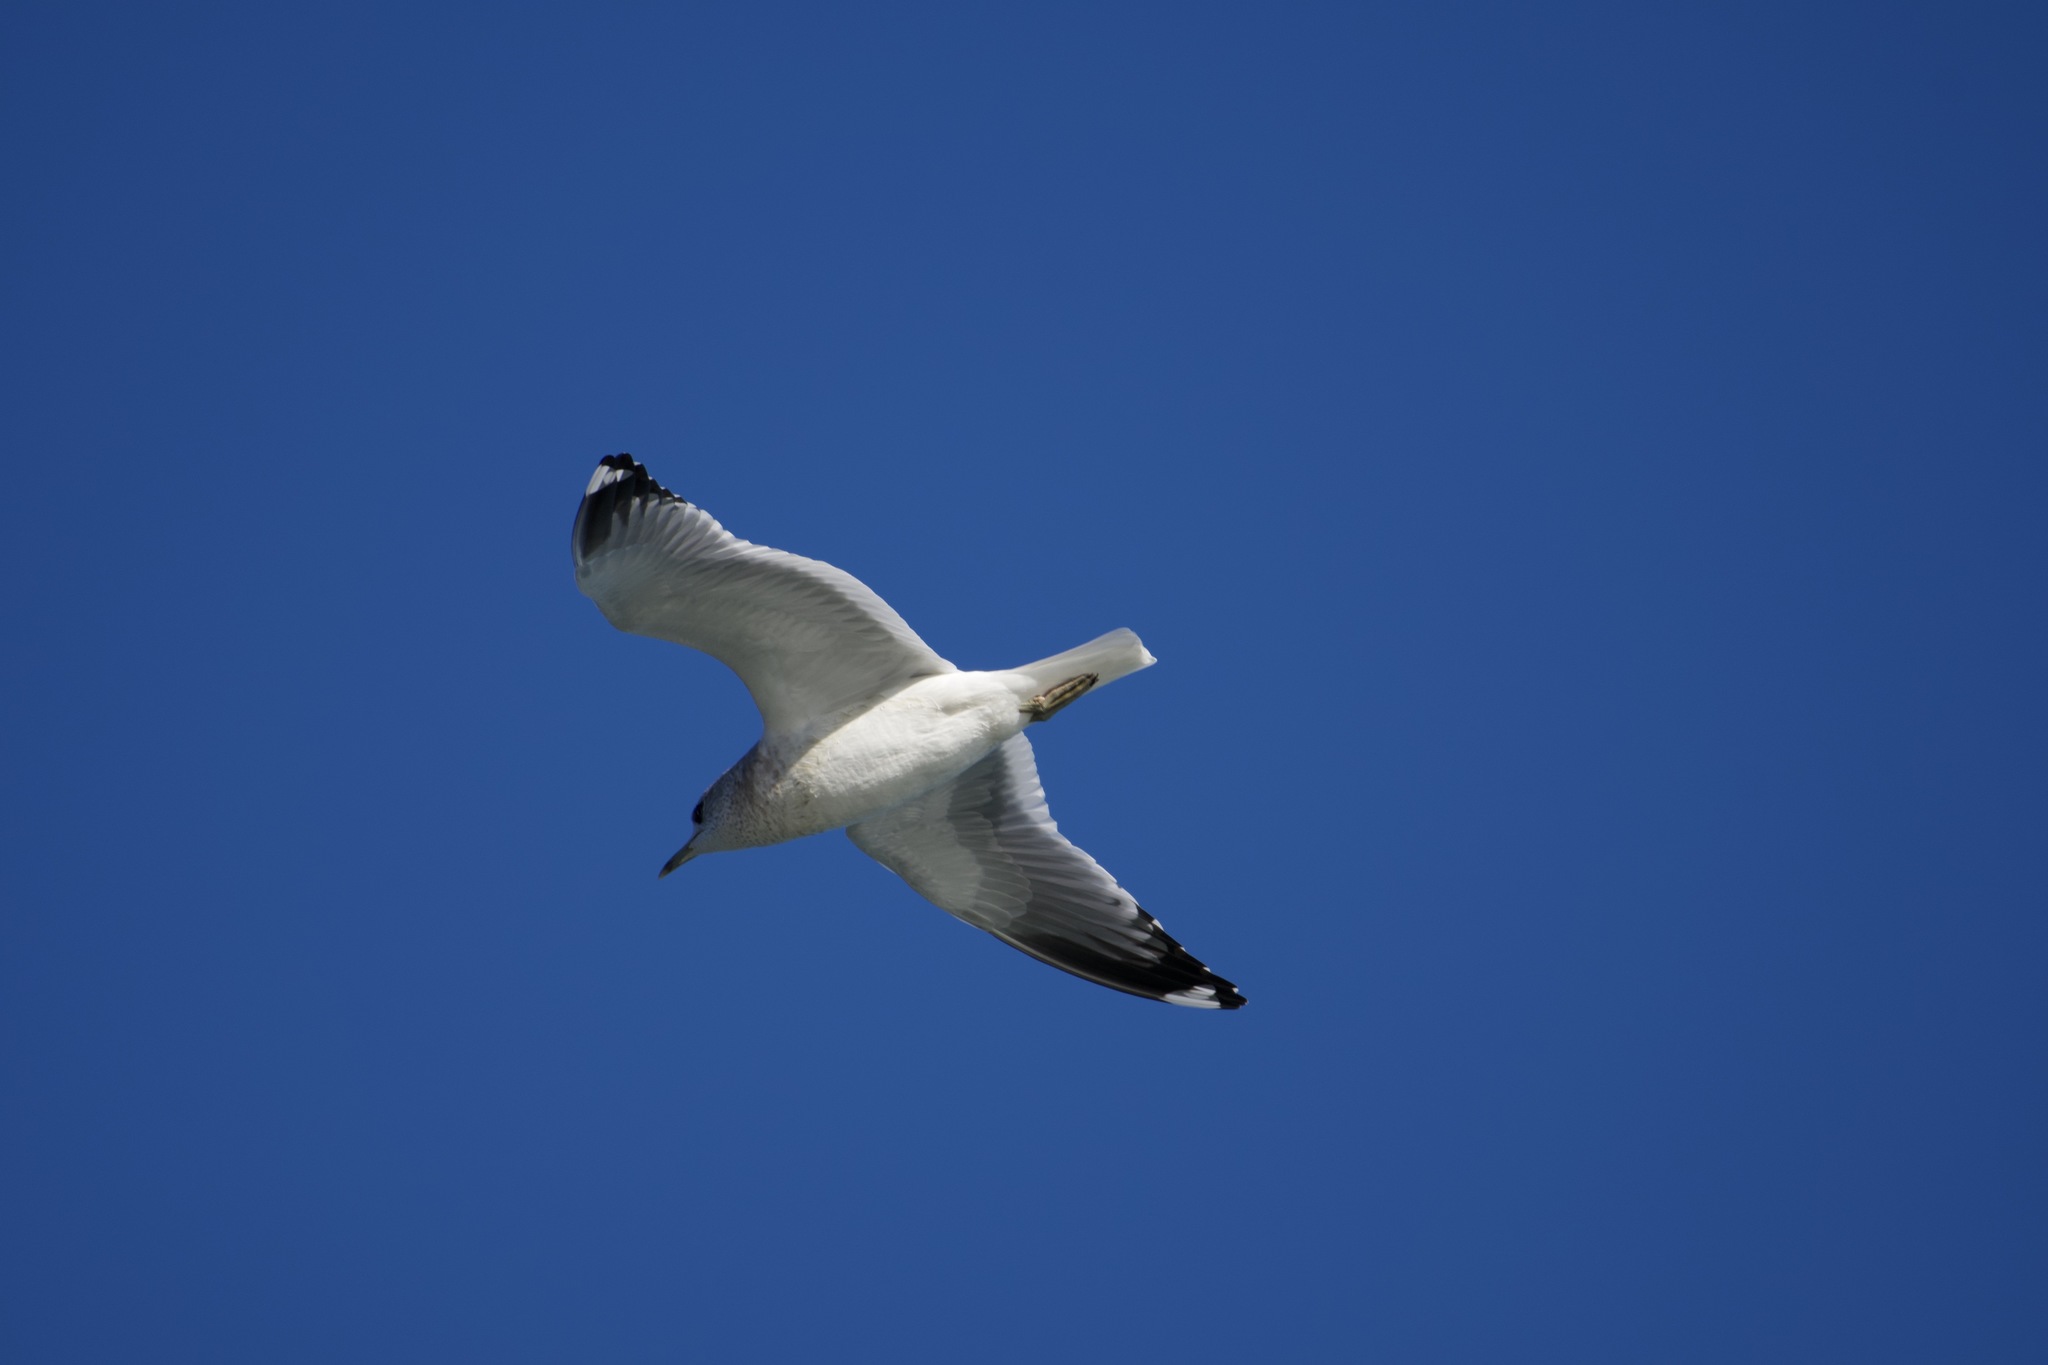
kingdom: Animalia
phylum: Chordata
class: Aves
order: Charadriiformes
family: Laridae
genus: Larus
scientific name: Larus brachyrhynchus
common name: Short-billed gull
